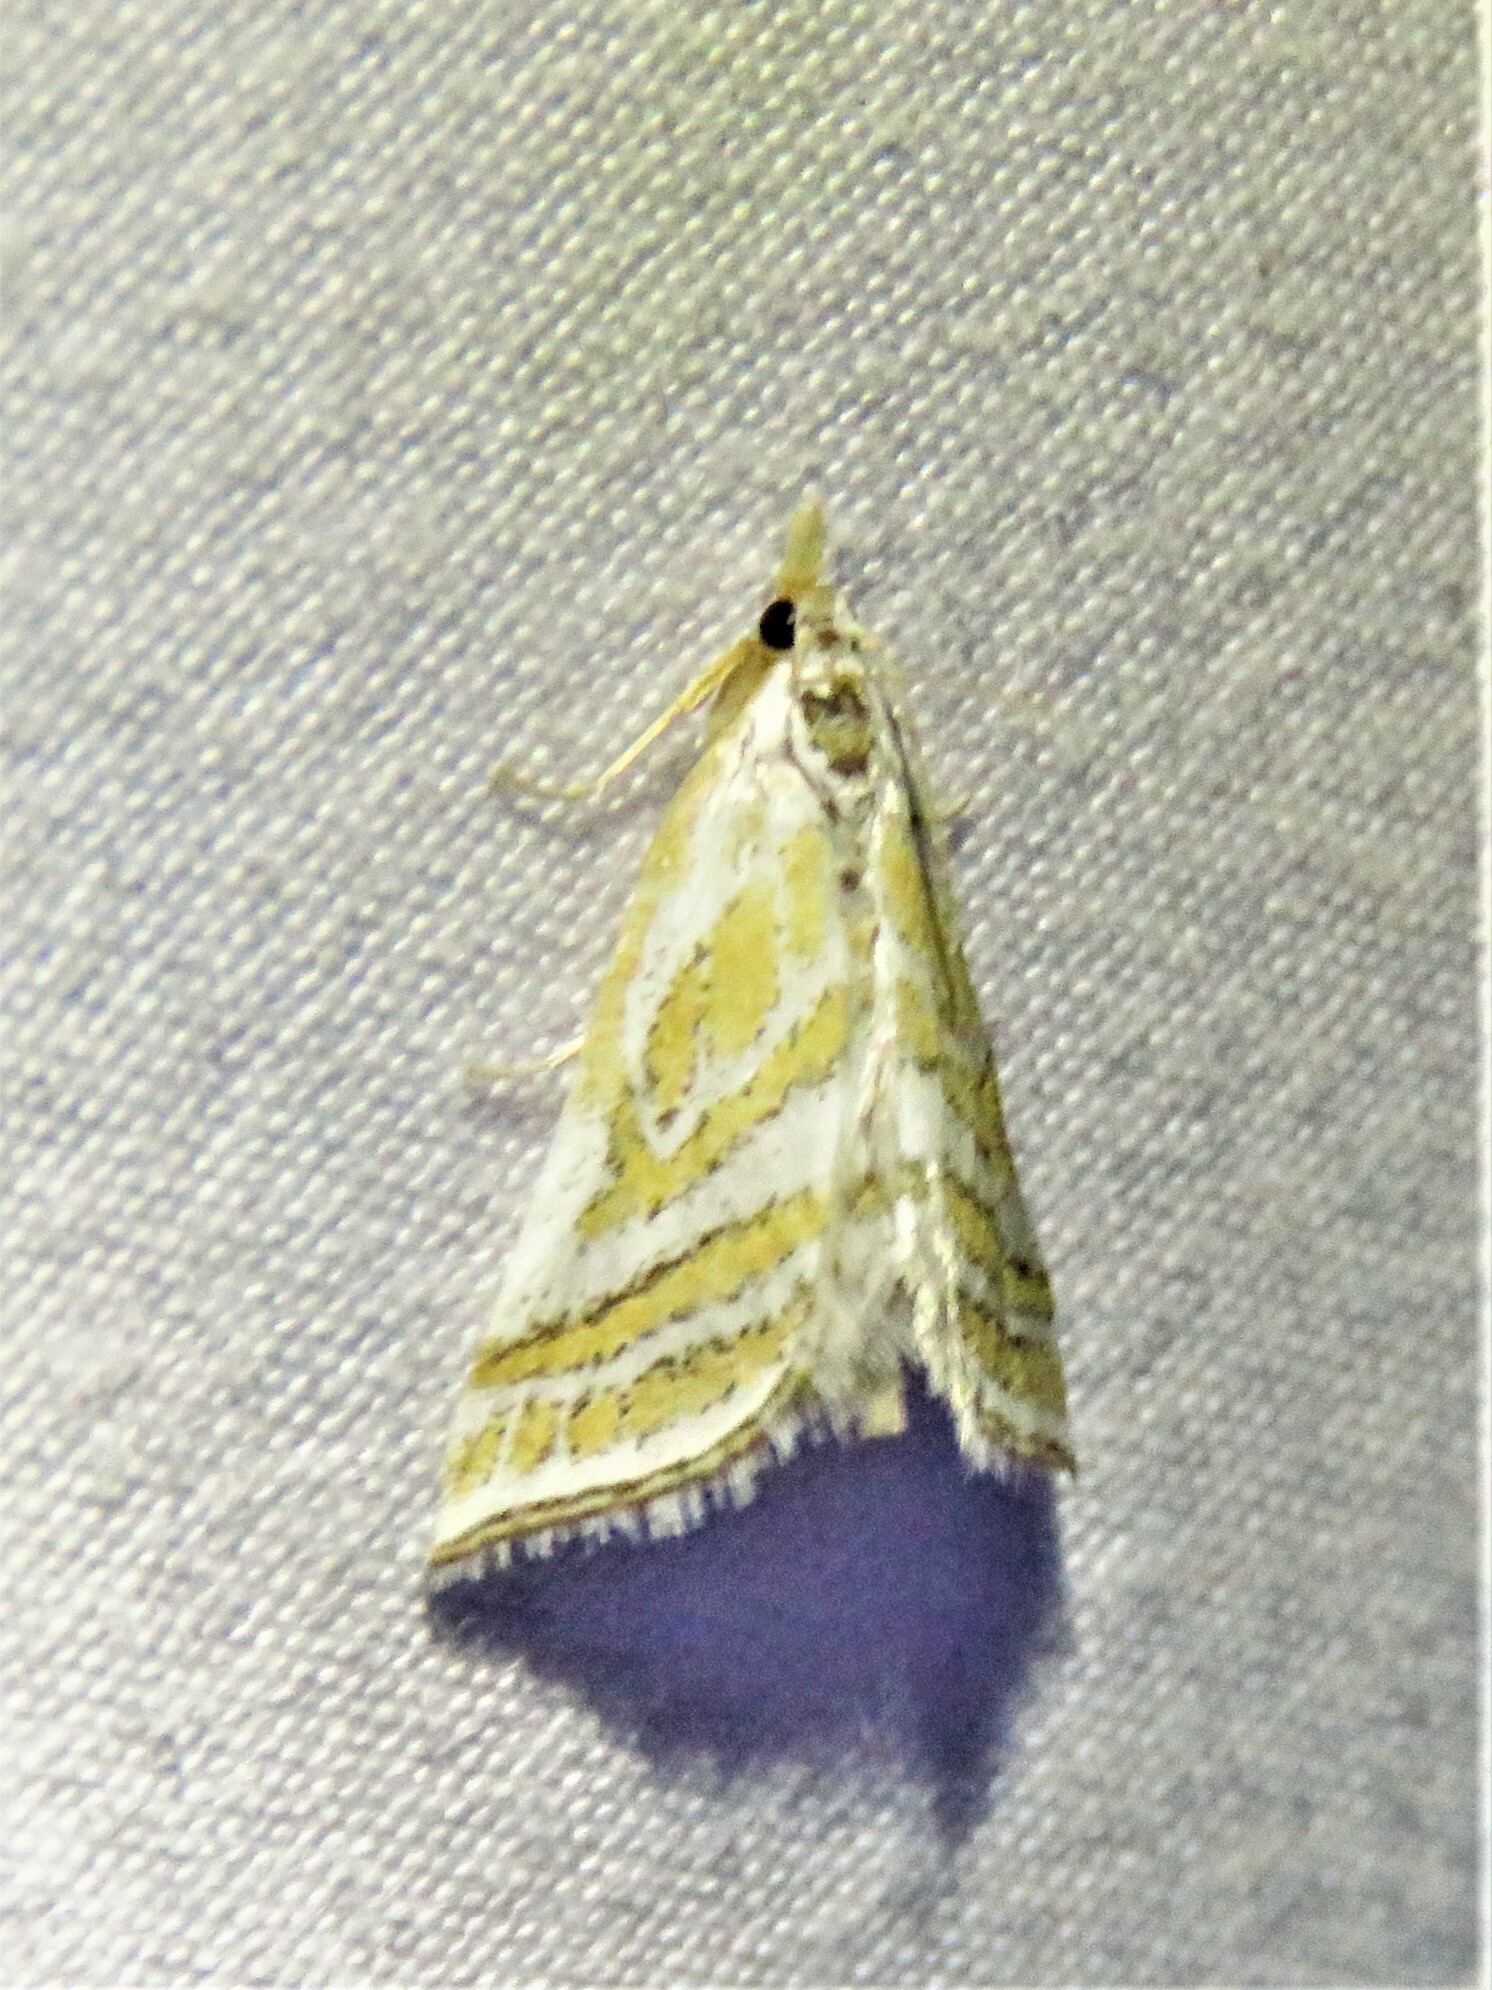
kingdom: Animalia
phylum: Arthropoda
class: Insecta
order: Lepidoptera
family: Crambidae
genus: Leptosteges
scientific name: Leptosteges
